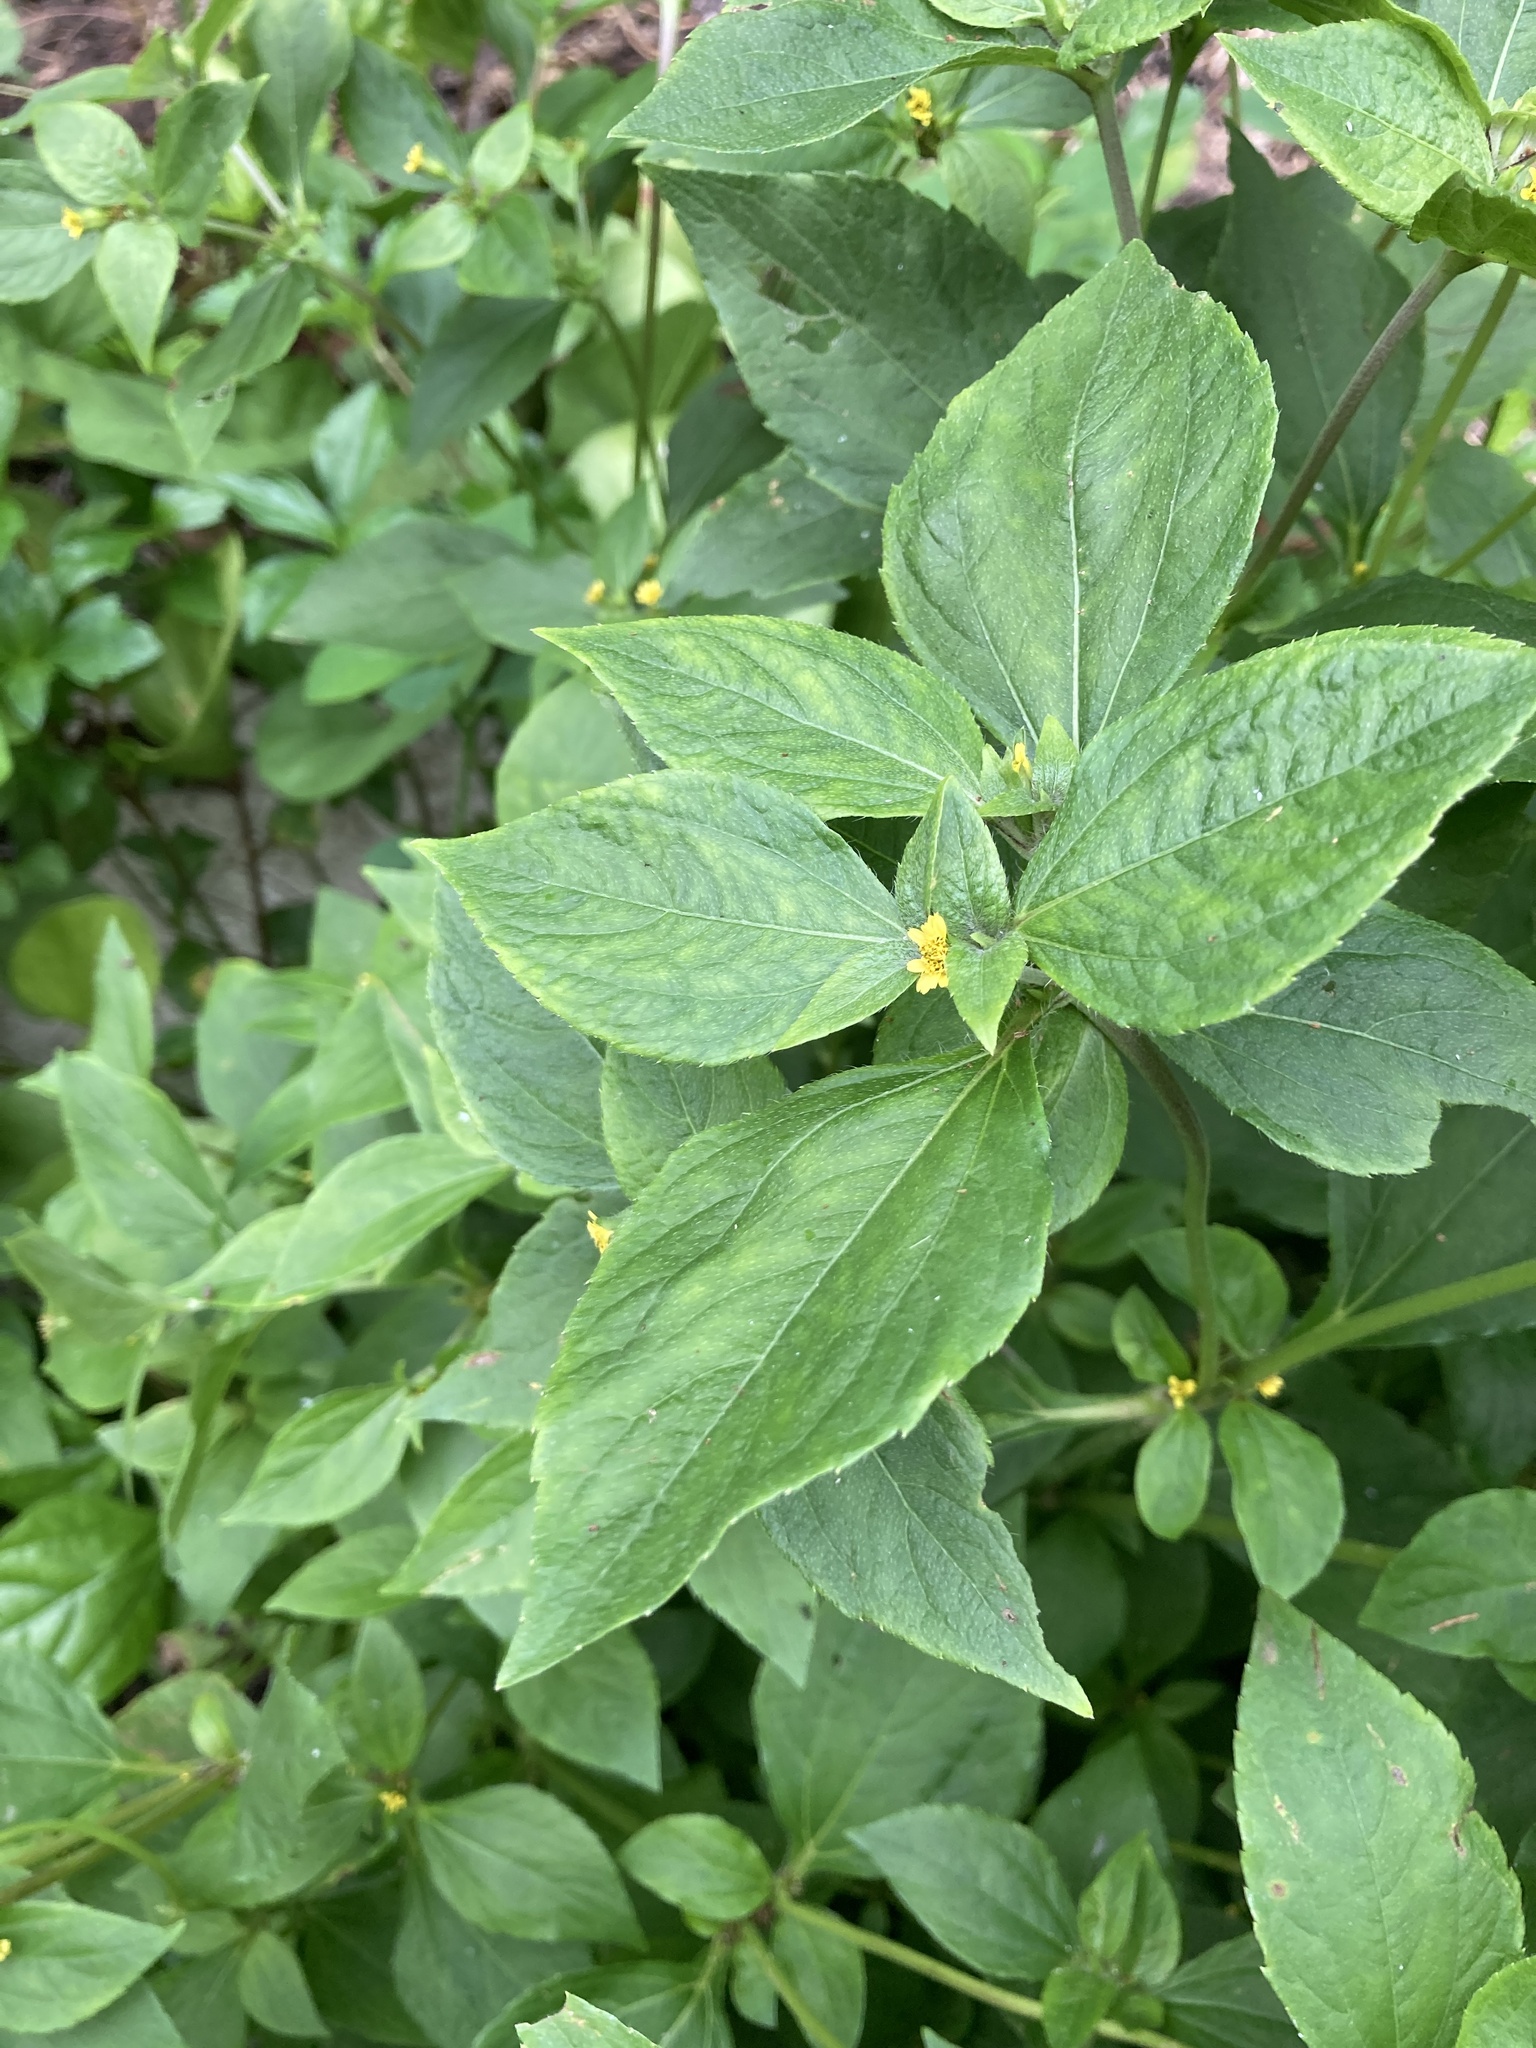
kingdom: Plantae
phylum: Tracheophyta
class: Magnoliopsida
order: Asterales
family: Asteraceae
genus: Synedrella
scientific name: Synedrella nodiflora
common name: Nodeweed
